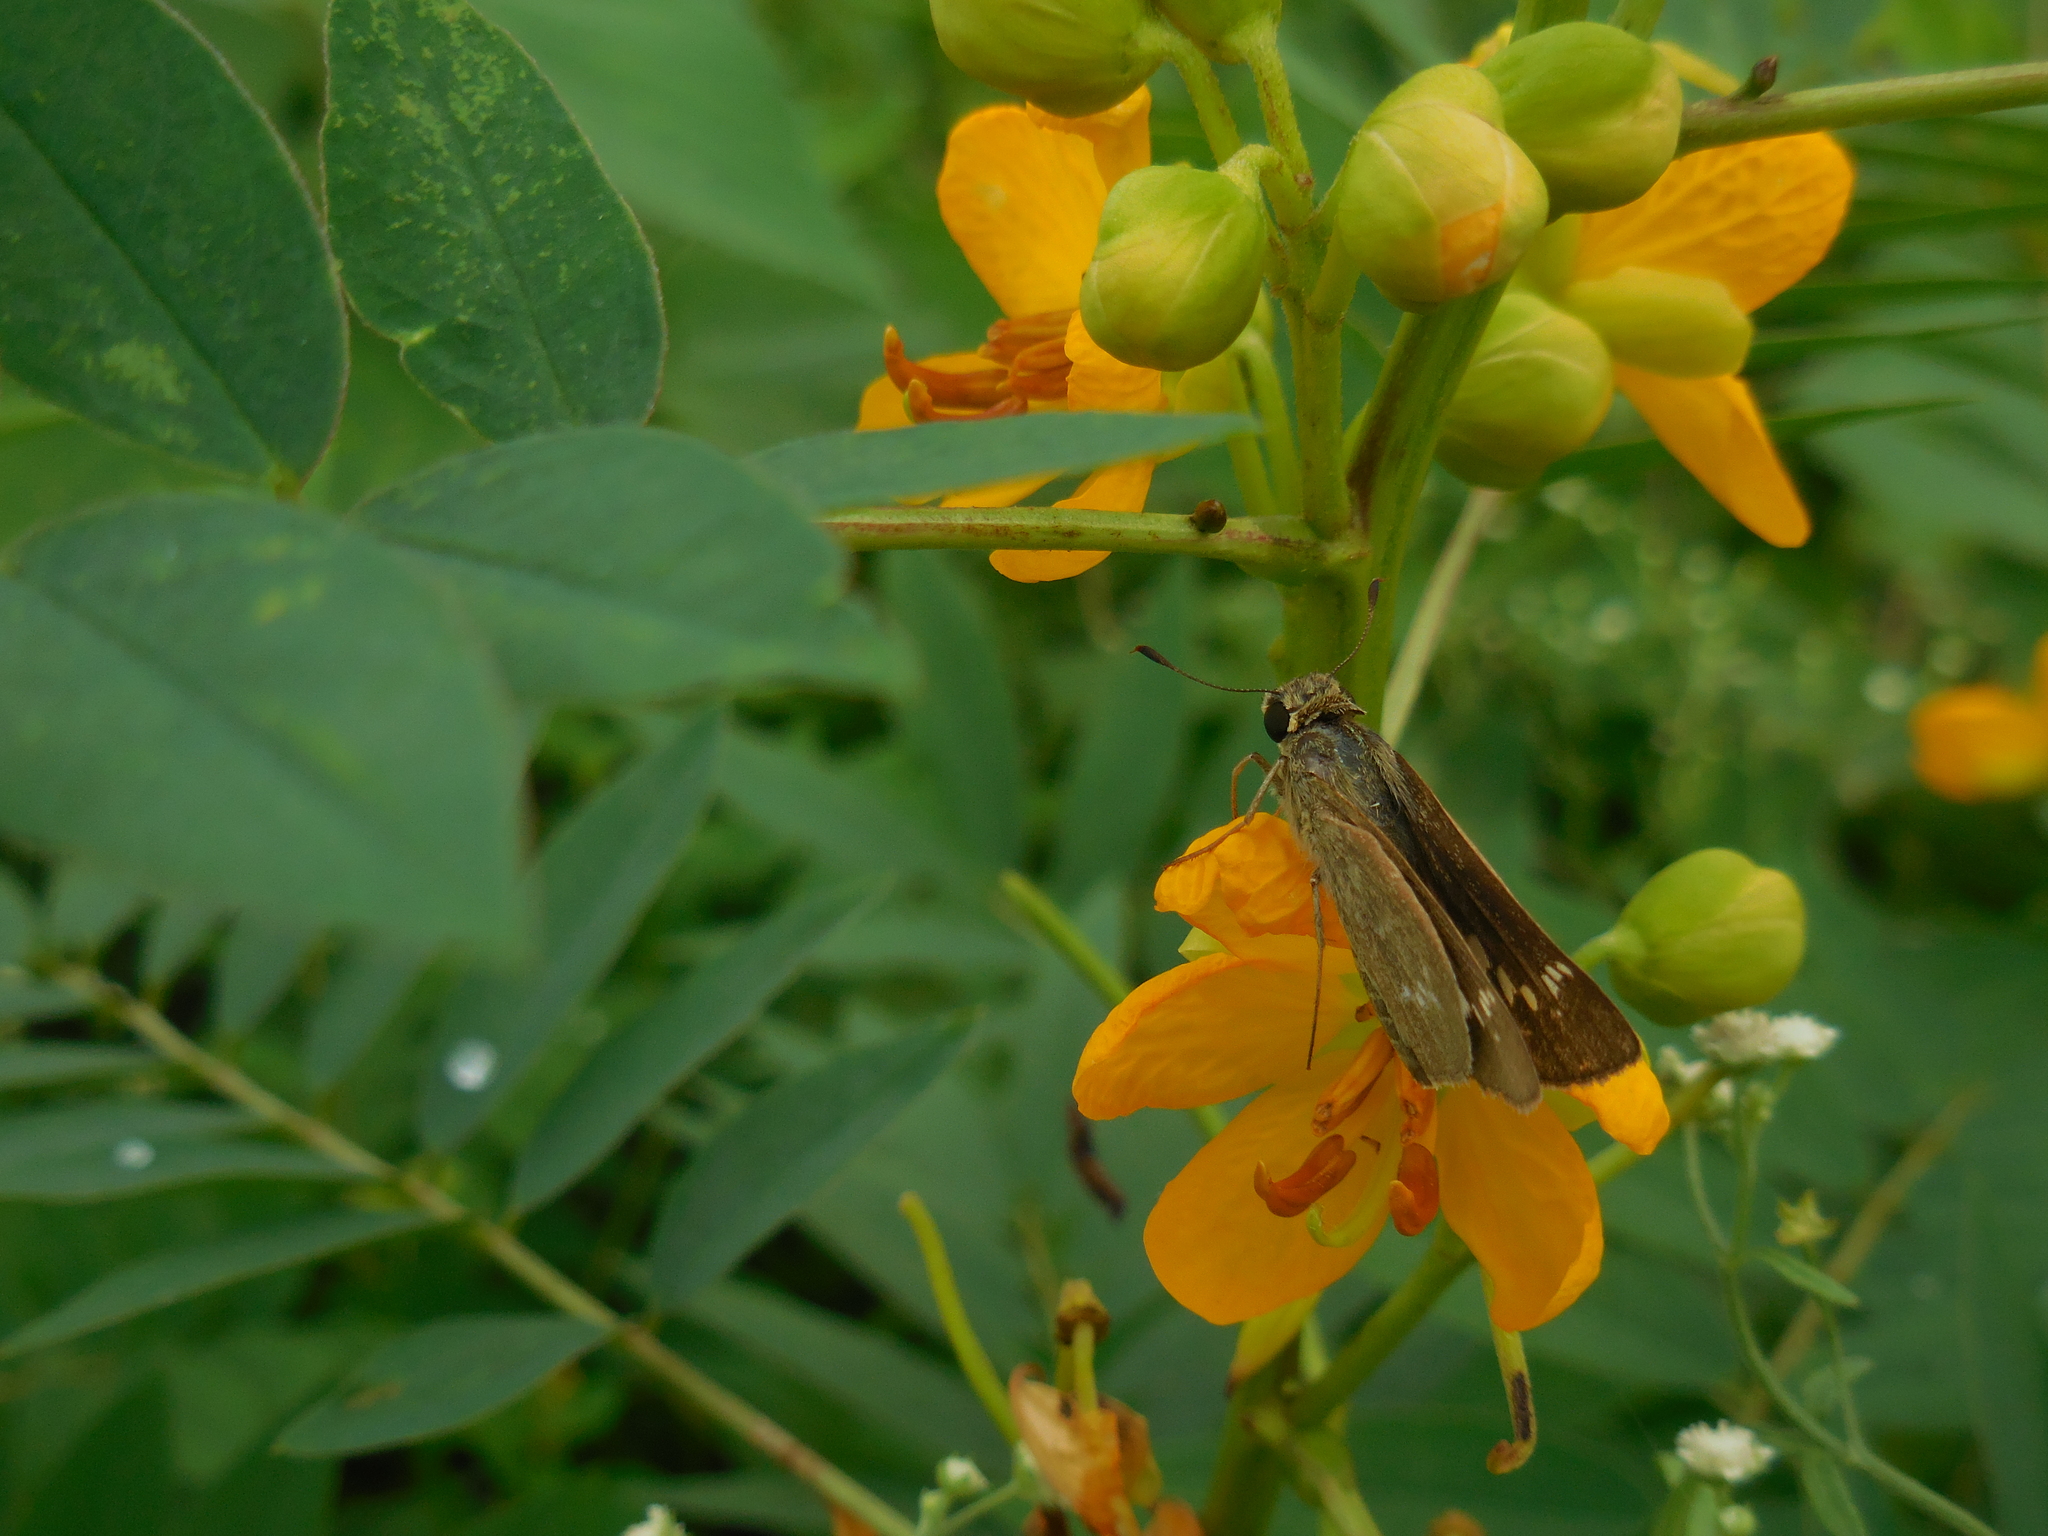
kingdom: Animalia
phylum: Arthropoda
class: Insecta
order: Lepidoptera
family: Hesperiidae
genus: Borbo
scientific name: Borbo cinnara
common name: Formosan swift
